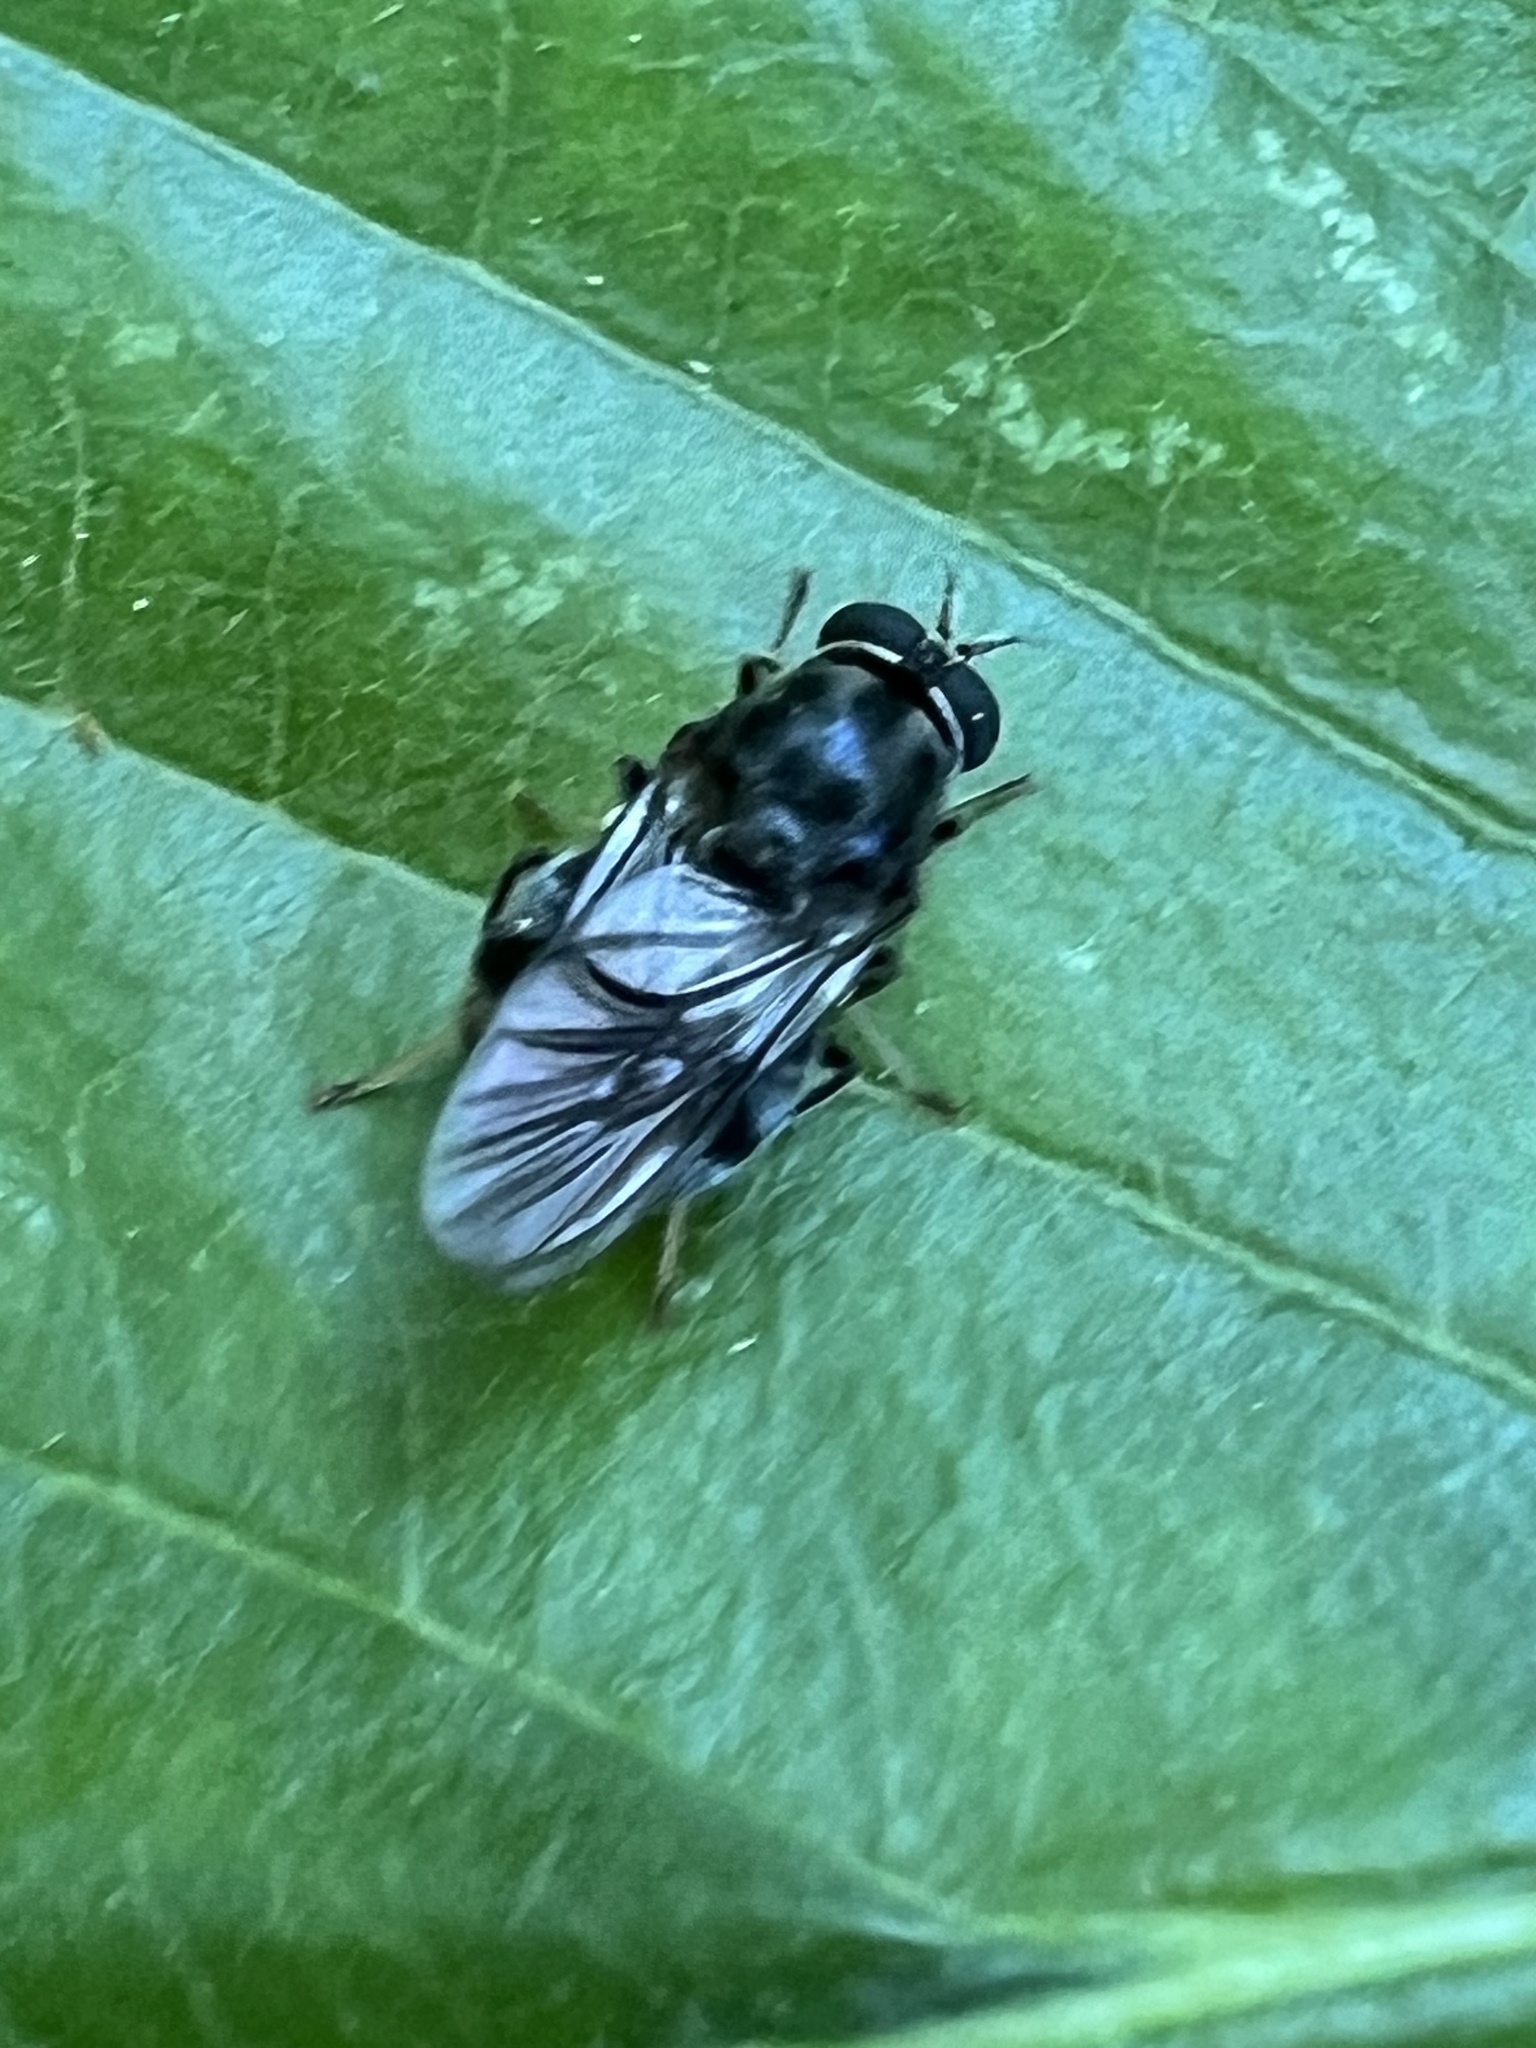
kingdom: Animalia
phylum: Arthropoda
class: Insecta
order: Diptera
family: Stratiomyidae
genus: Adoxomyia
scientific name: Adoxomyia subulata
